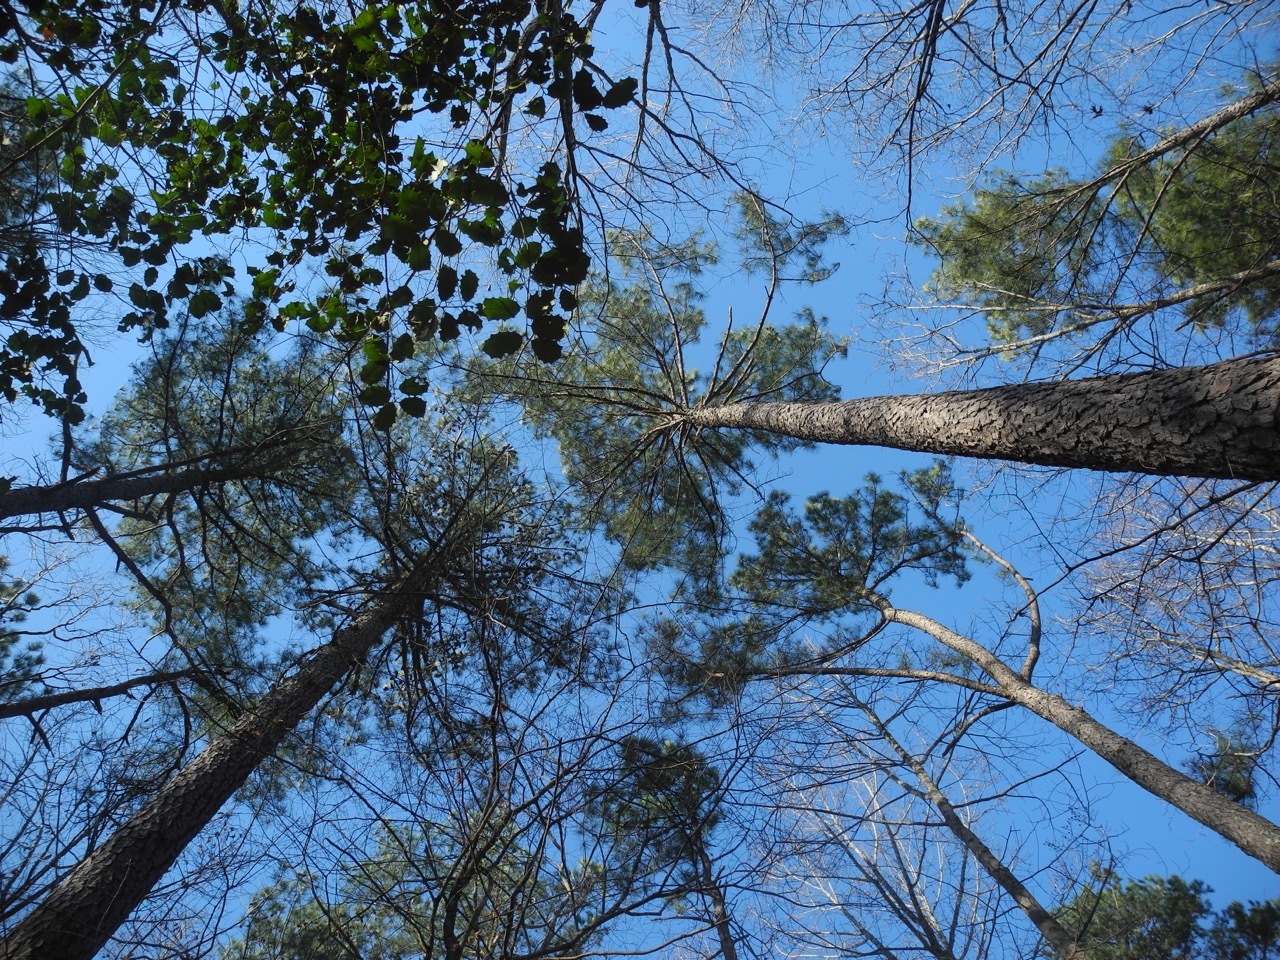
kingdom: Plantae
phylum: Tracheophyta
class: Pinopsida
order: Pinales
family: Pinaceae
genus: Pinus
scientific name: Pinus taeda
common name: Loblolly pine
